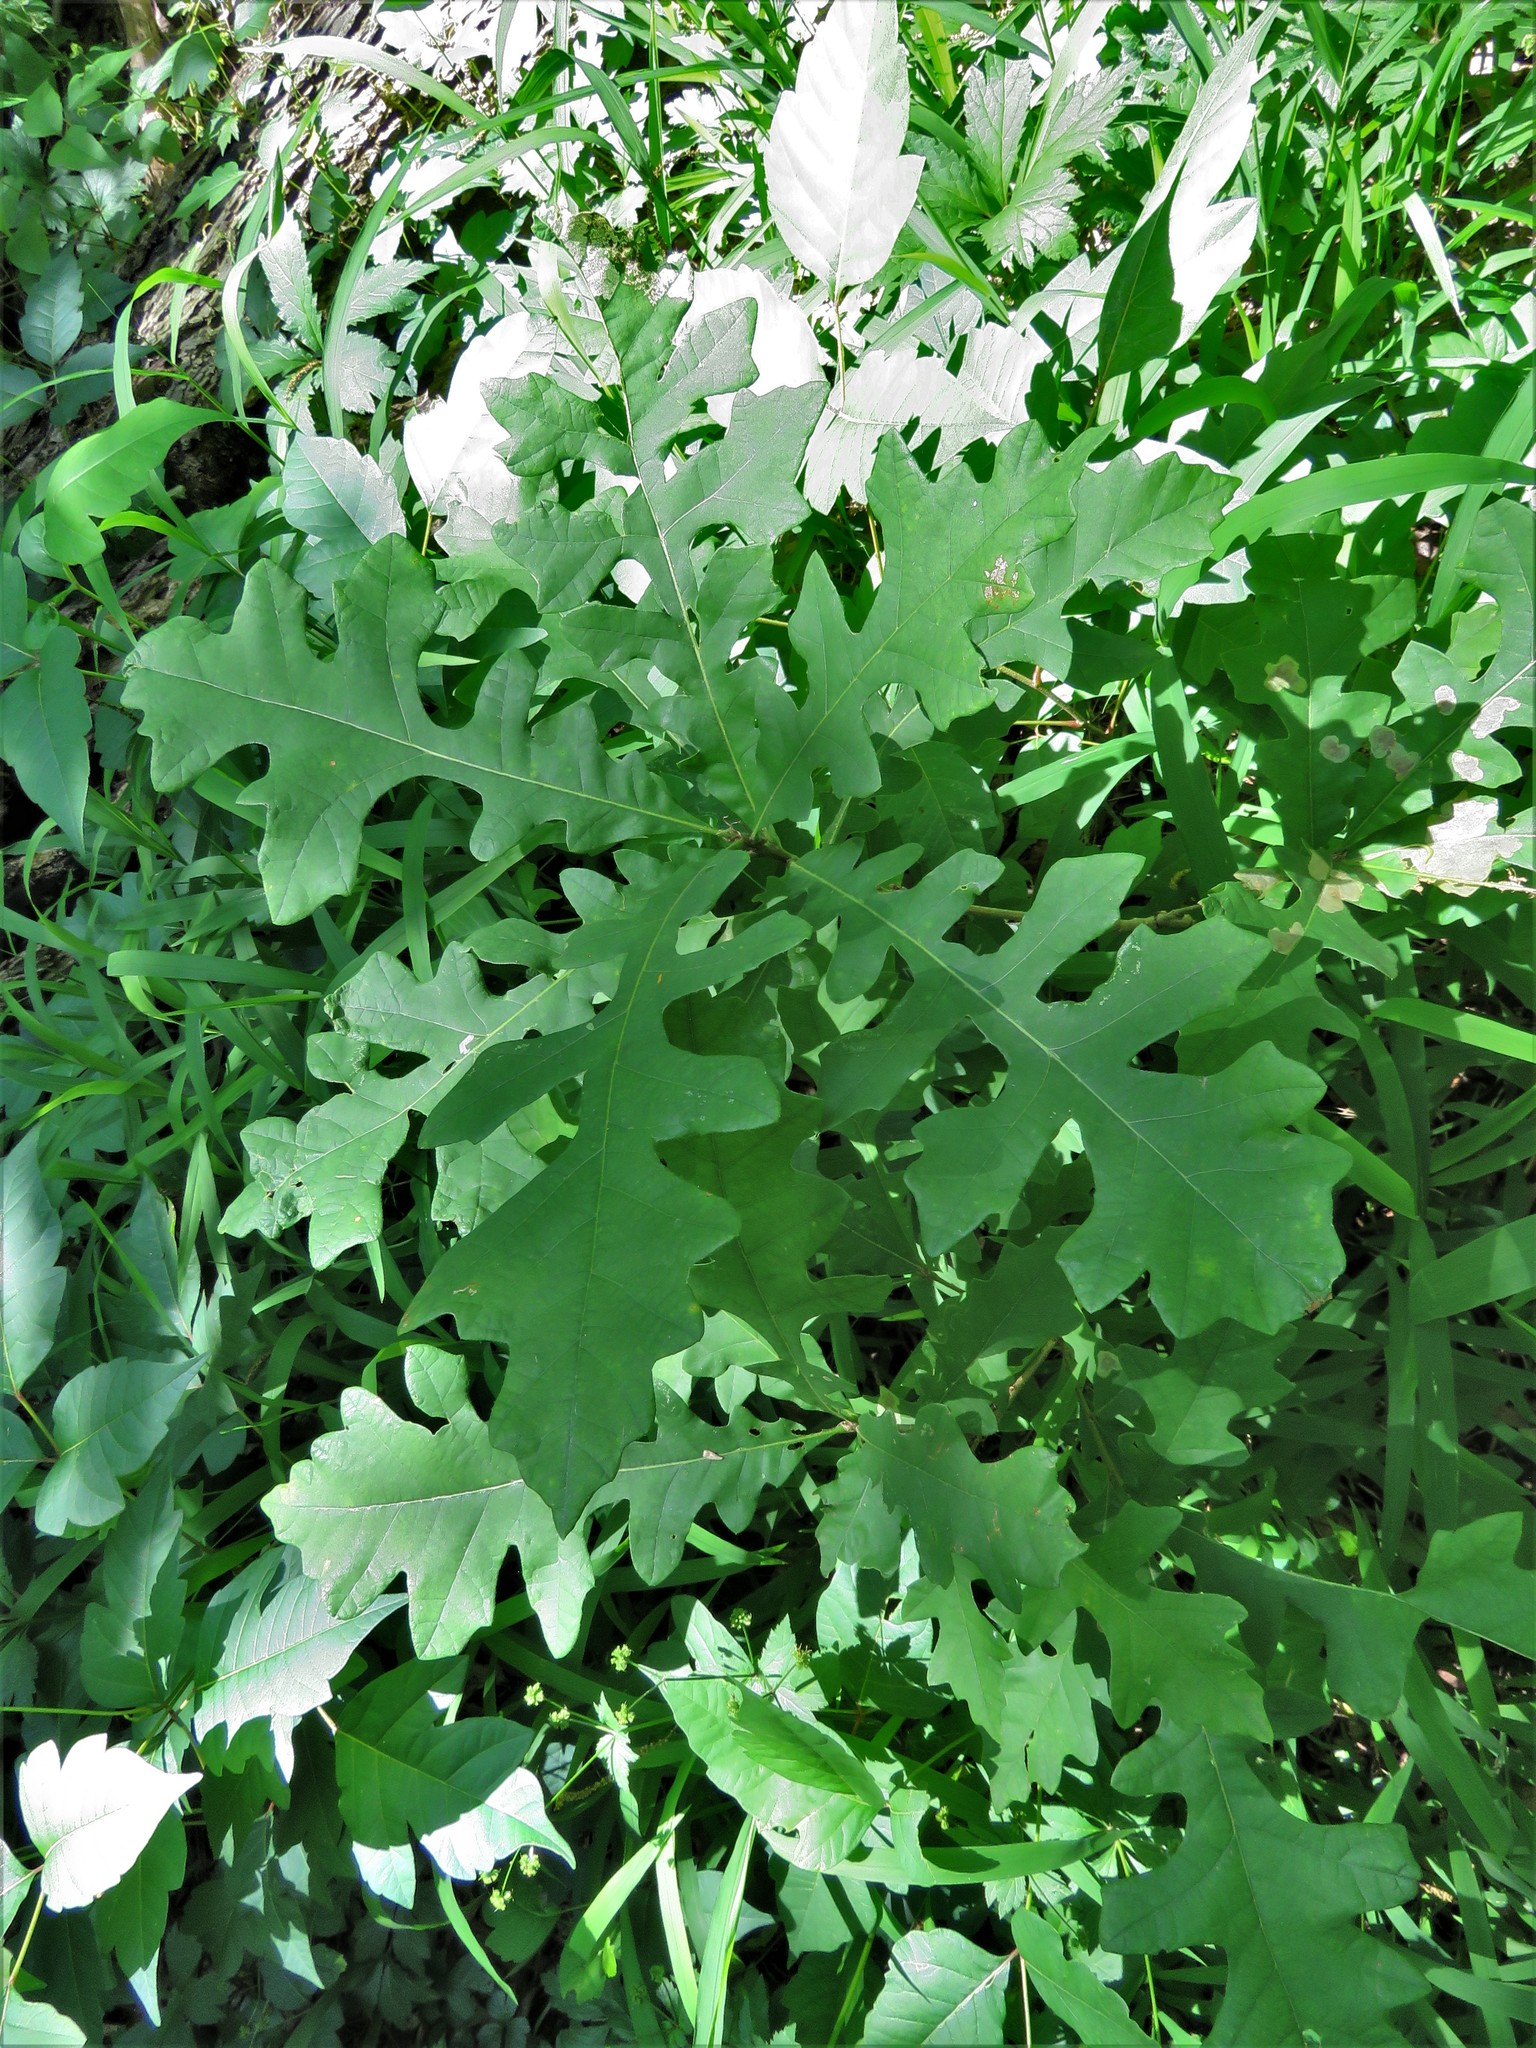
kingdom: Plantae
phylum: Tracheophyta
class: Magnoliopsida
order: Fagales
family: Fagaceae
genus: Quercus
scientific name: Quercus macrocarpa
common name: Bur oak
